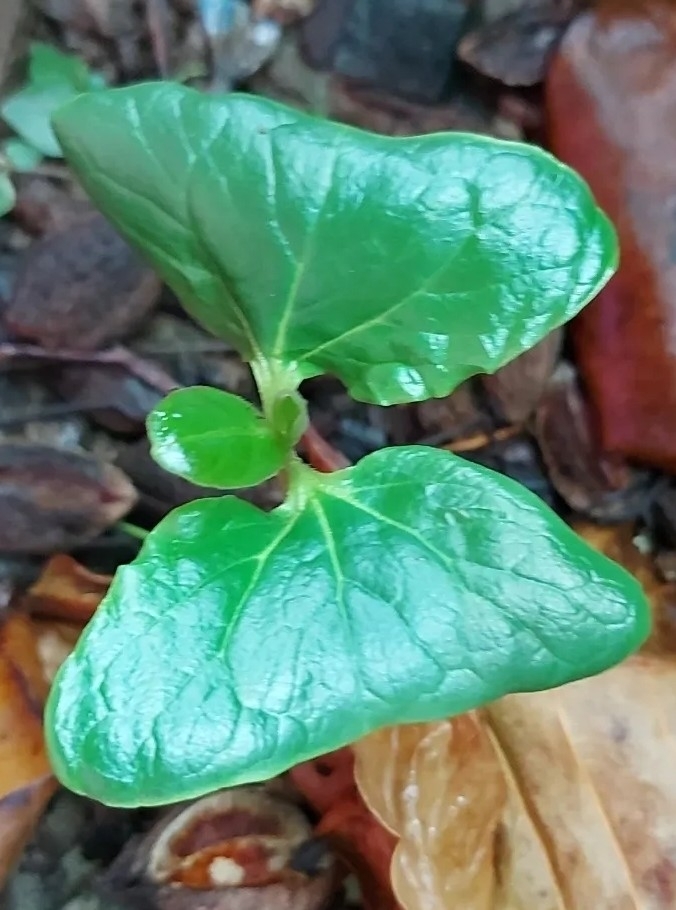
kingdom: Plantae
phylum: Tracheophyta
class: Magnoliopsida
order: Myrtales
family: Combretaceae
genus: Terminalia
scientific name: Terminalia catappa
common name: Tropical almond
